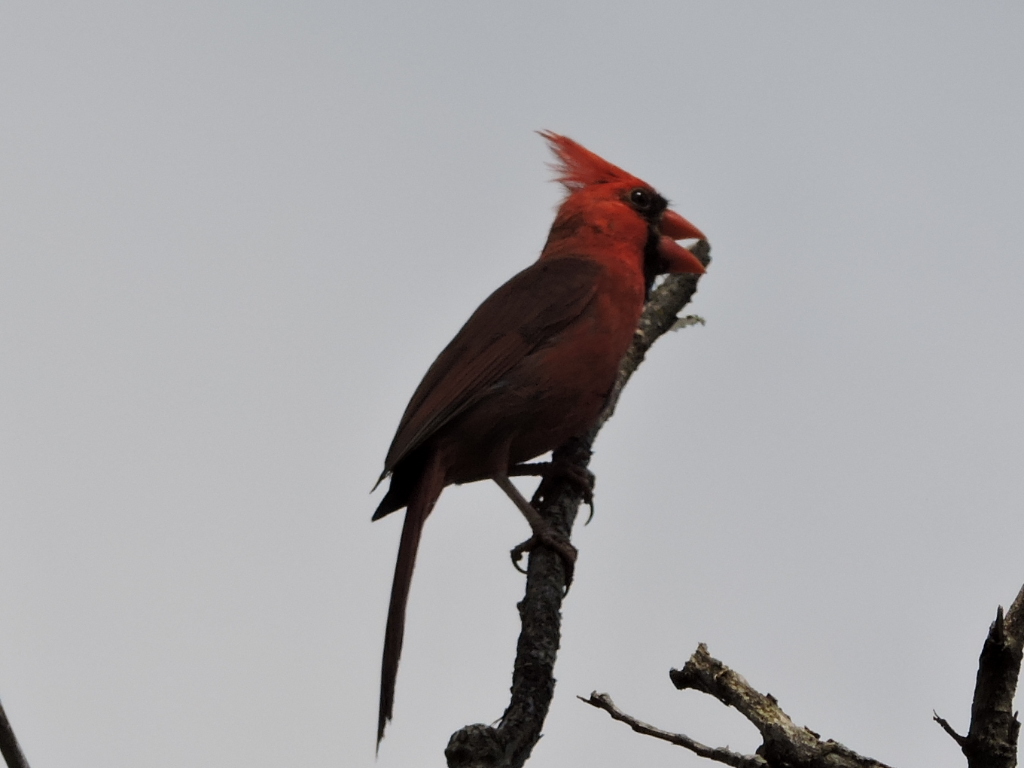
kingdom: Animalia
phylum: Chordata
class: Aves
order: Passeriformes
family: Cardinalidae
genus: Cardinalis
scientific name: Cardinalis cardinalis
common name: Northern cardinal
